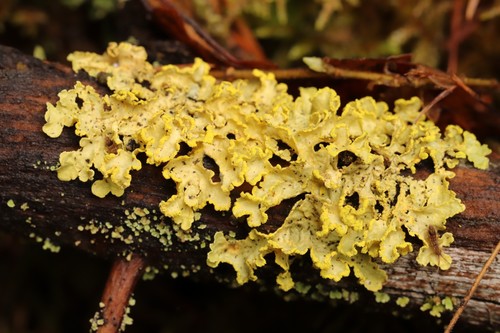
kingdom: Fungi
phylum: Ascomycota
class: Lecanoromycetes
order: Lecanorales
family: Parmeliaceae
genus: Vulpicida
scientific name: Vulpicida pinastri
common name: Powdered sunshine lichen
